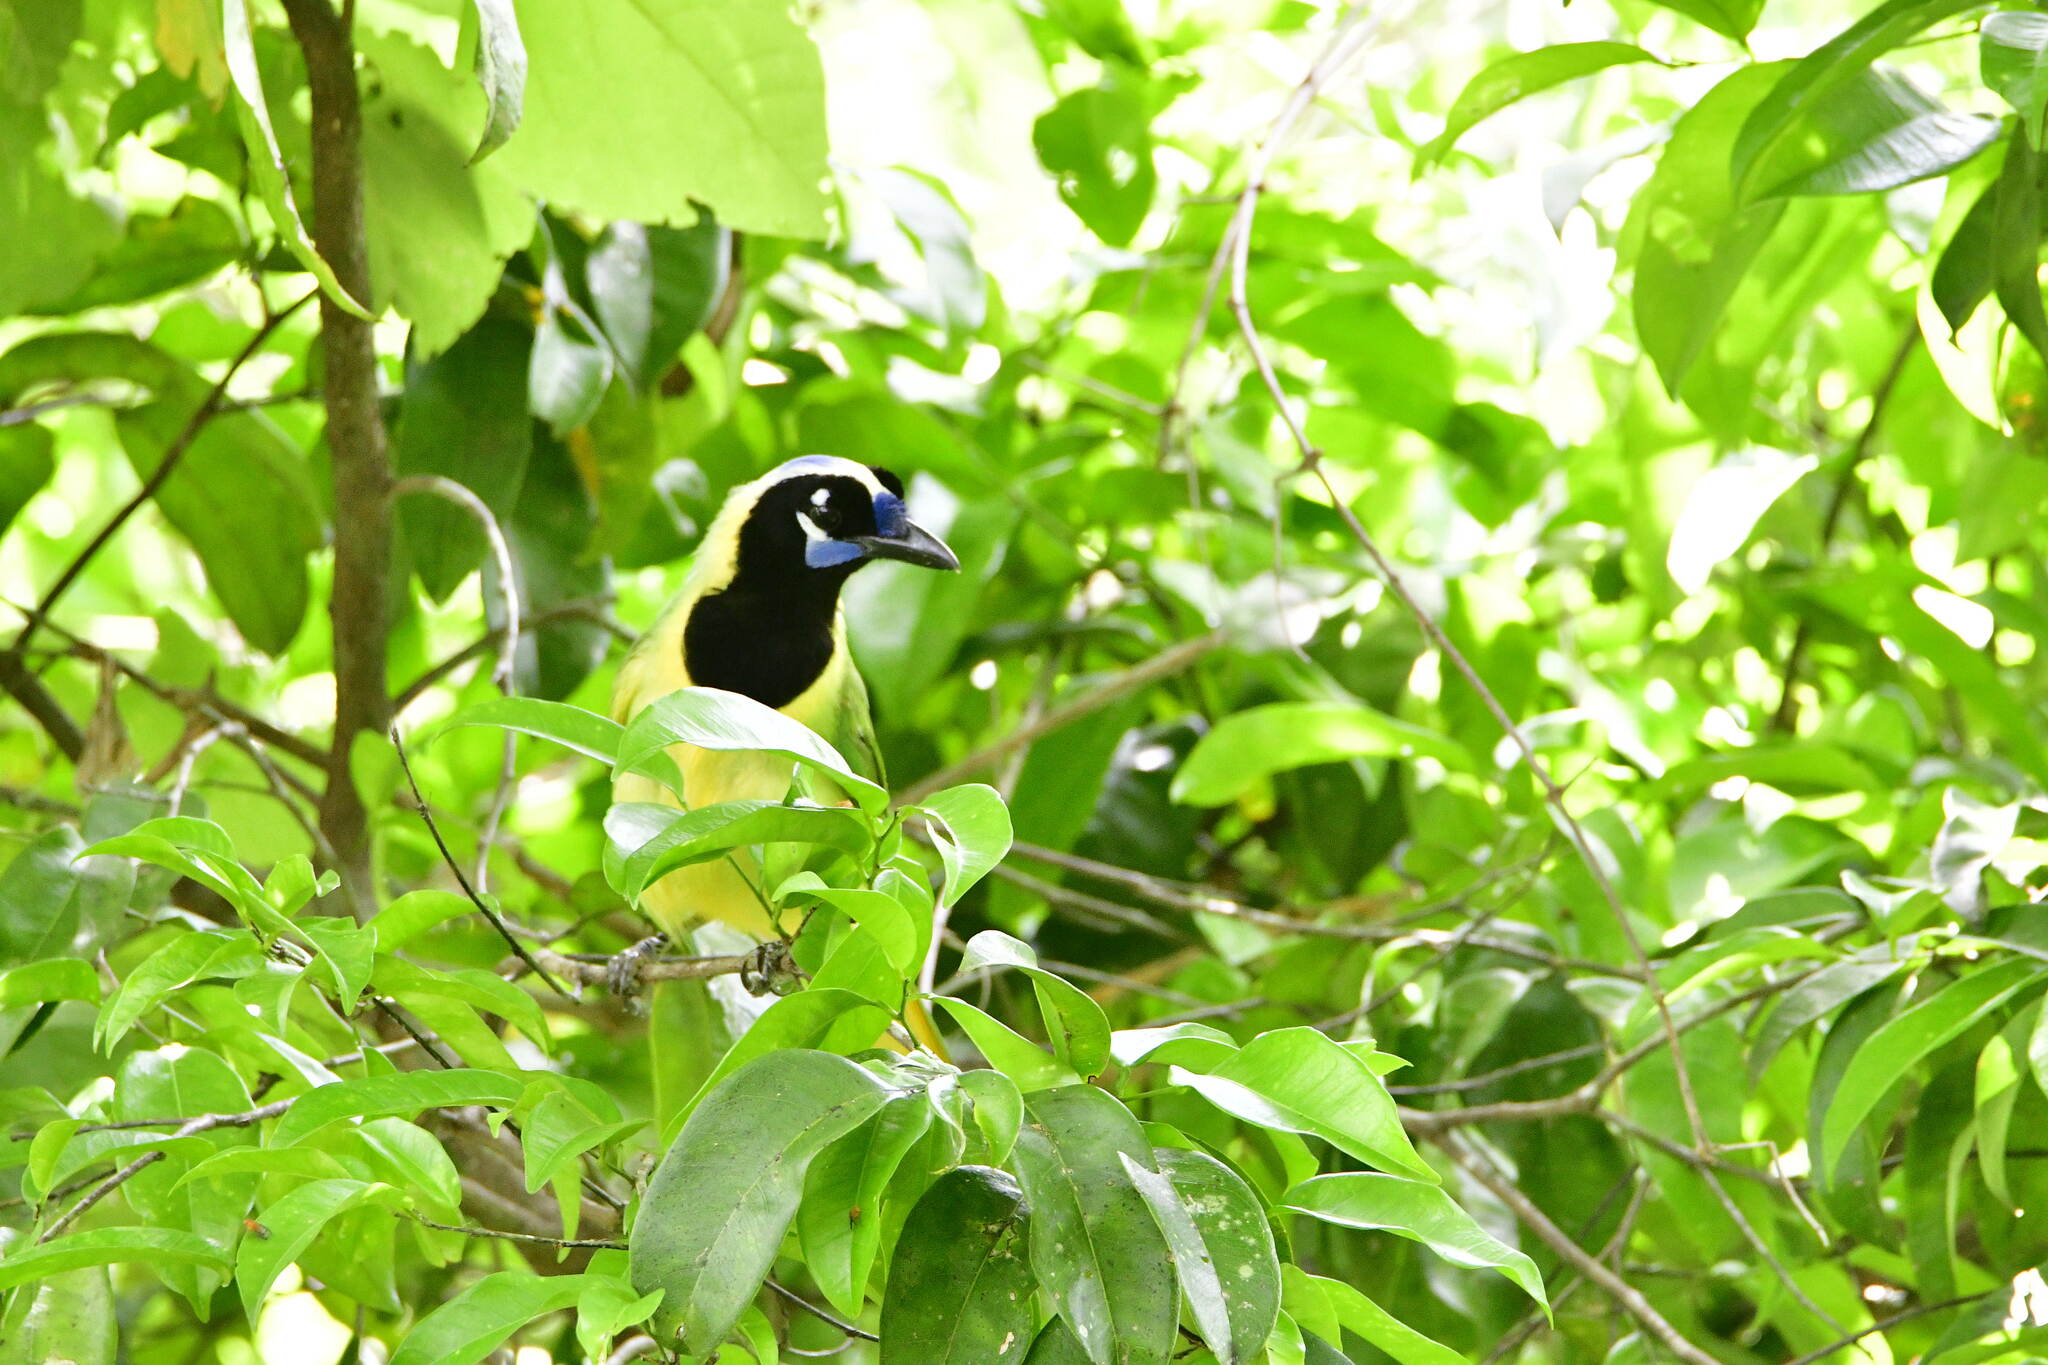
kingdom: Animalia
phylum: Chordata
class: Aves
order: Passeriformes
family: Corvidae
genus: Cyanocorax
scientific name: Cyanocorax yncas
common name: Green jay
